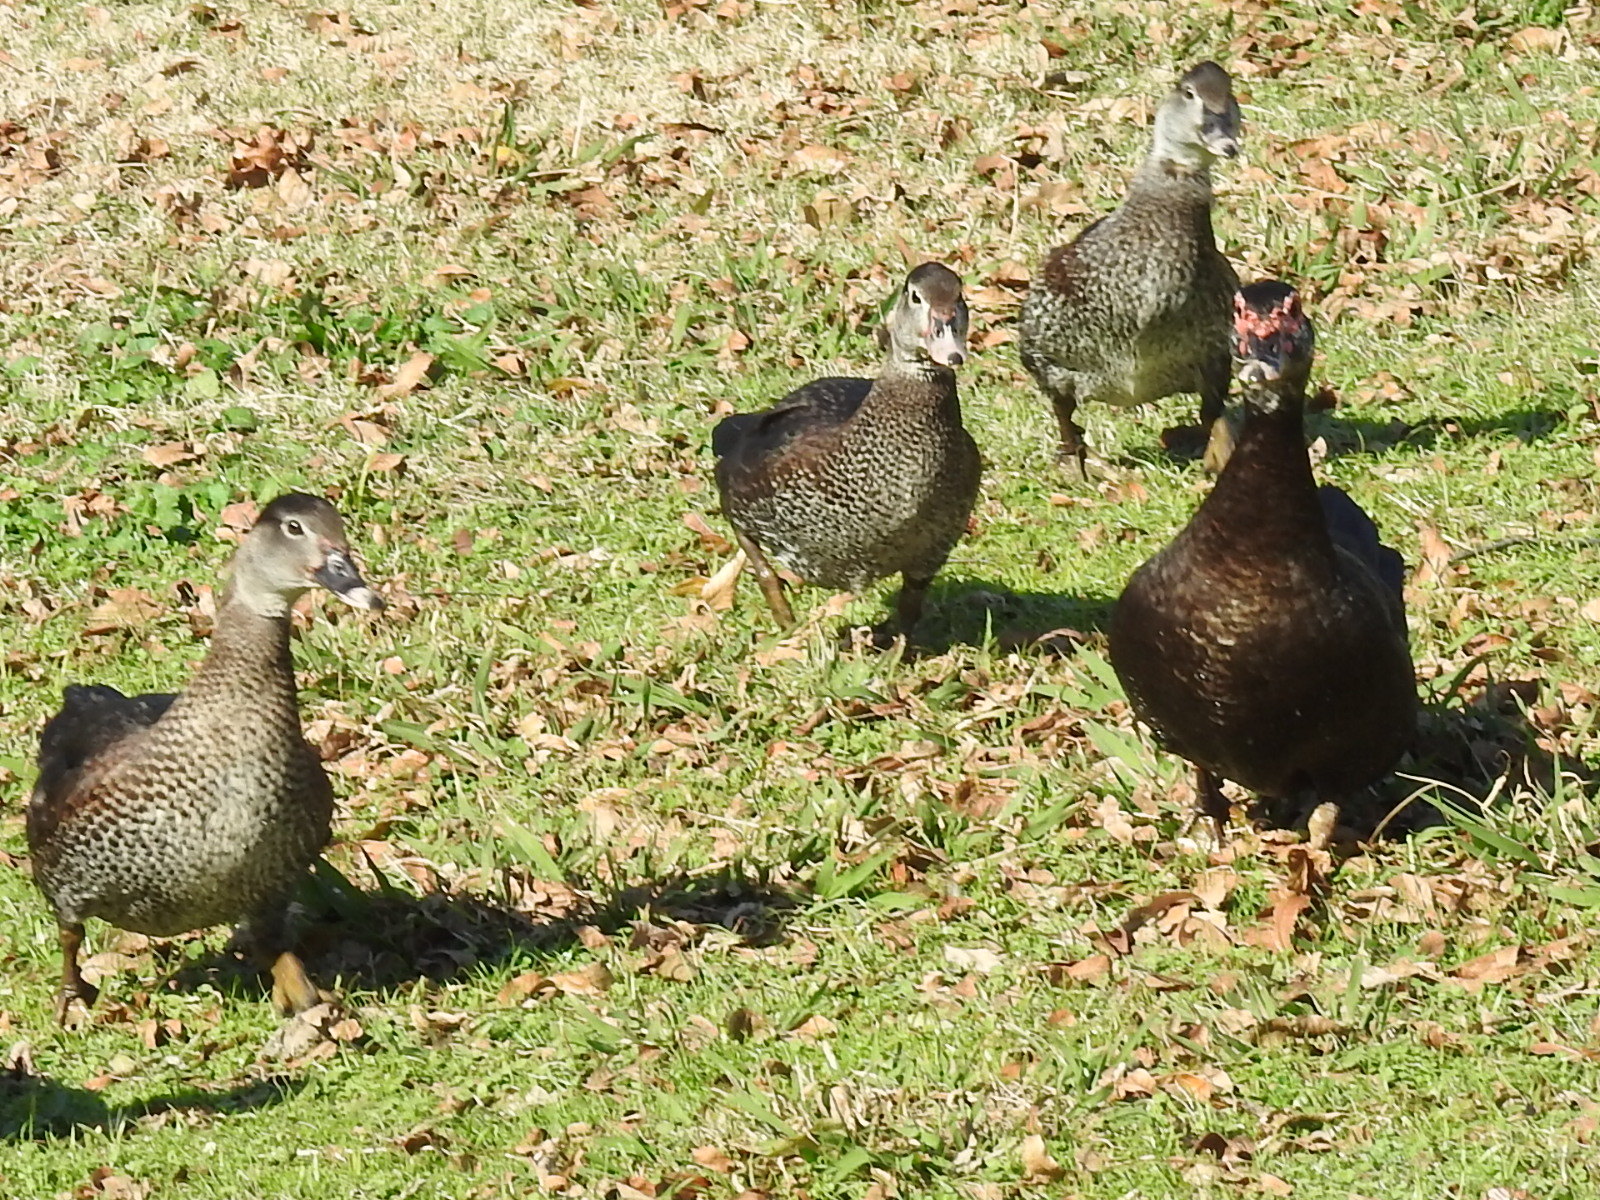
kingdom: Animalia
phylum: Chordata
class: Aves
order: Anseriformes
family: Anatidae
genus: Cairina
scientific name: Cairina moschata
